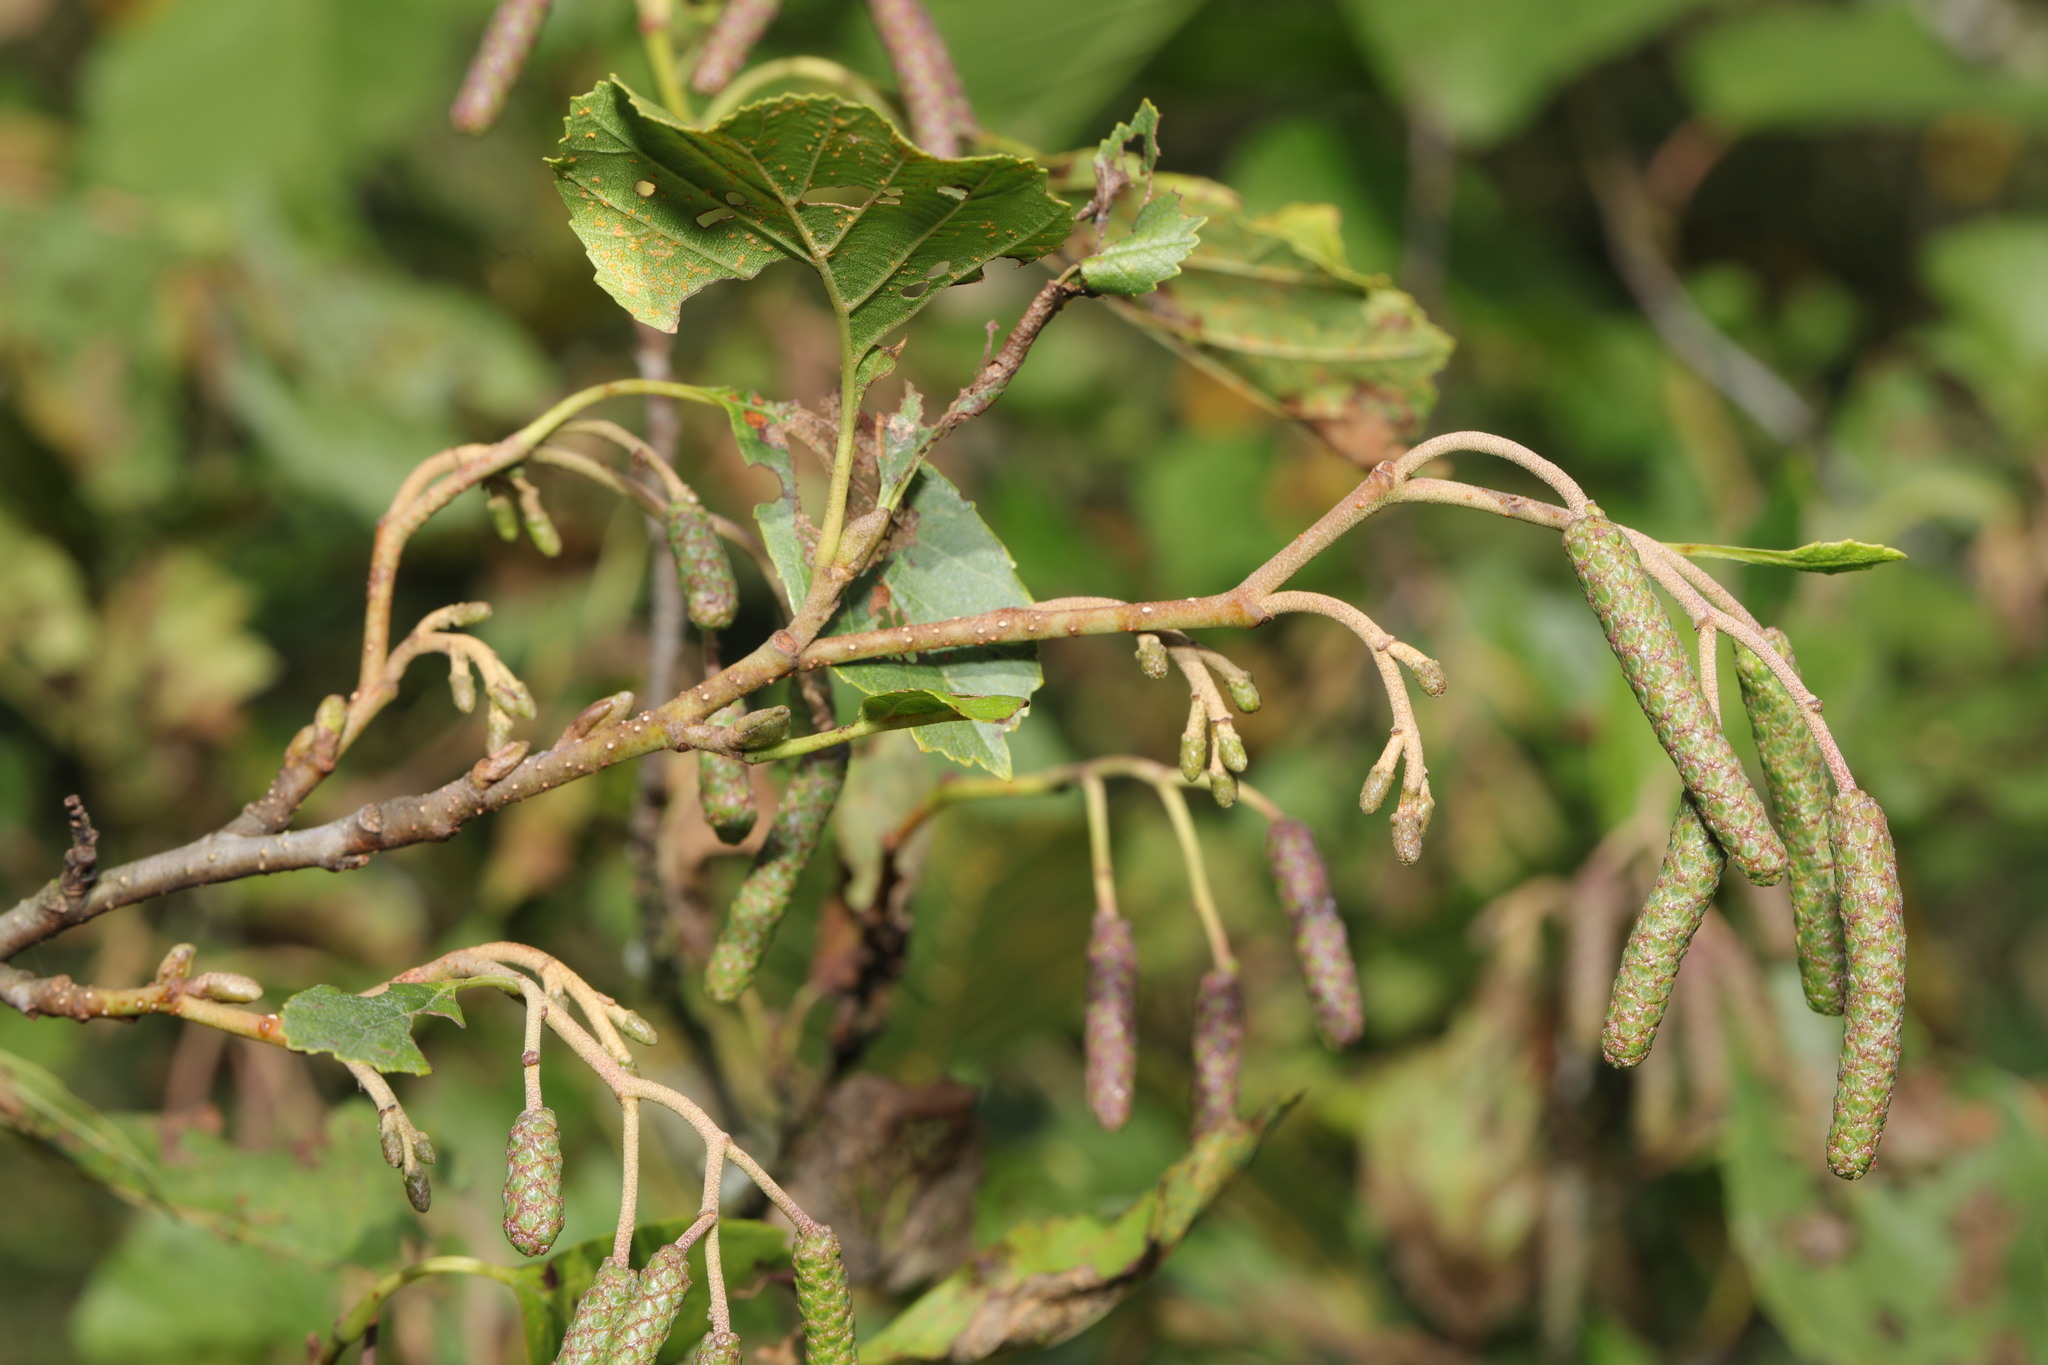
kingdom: Plantae
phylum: Tracheophyta
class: Magnoliopsida
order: Fagales
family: Betulaceae
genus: Alnus
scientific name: Alnus glutinosa
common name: Black alder
